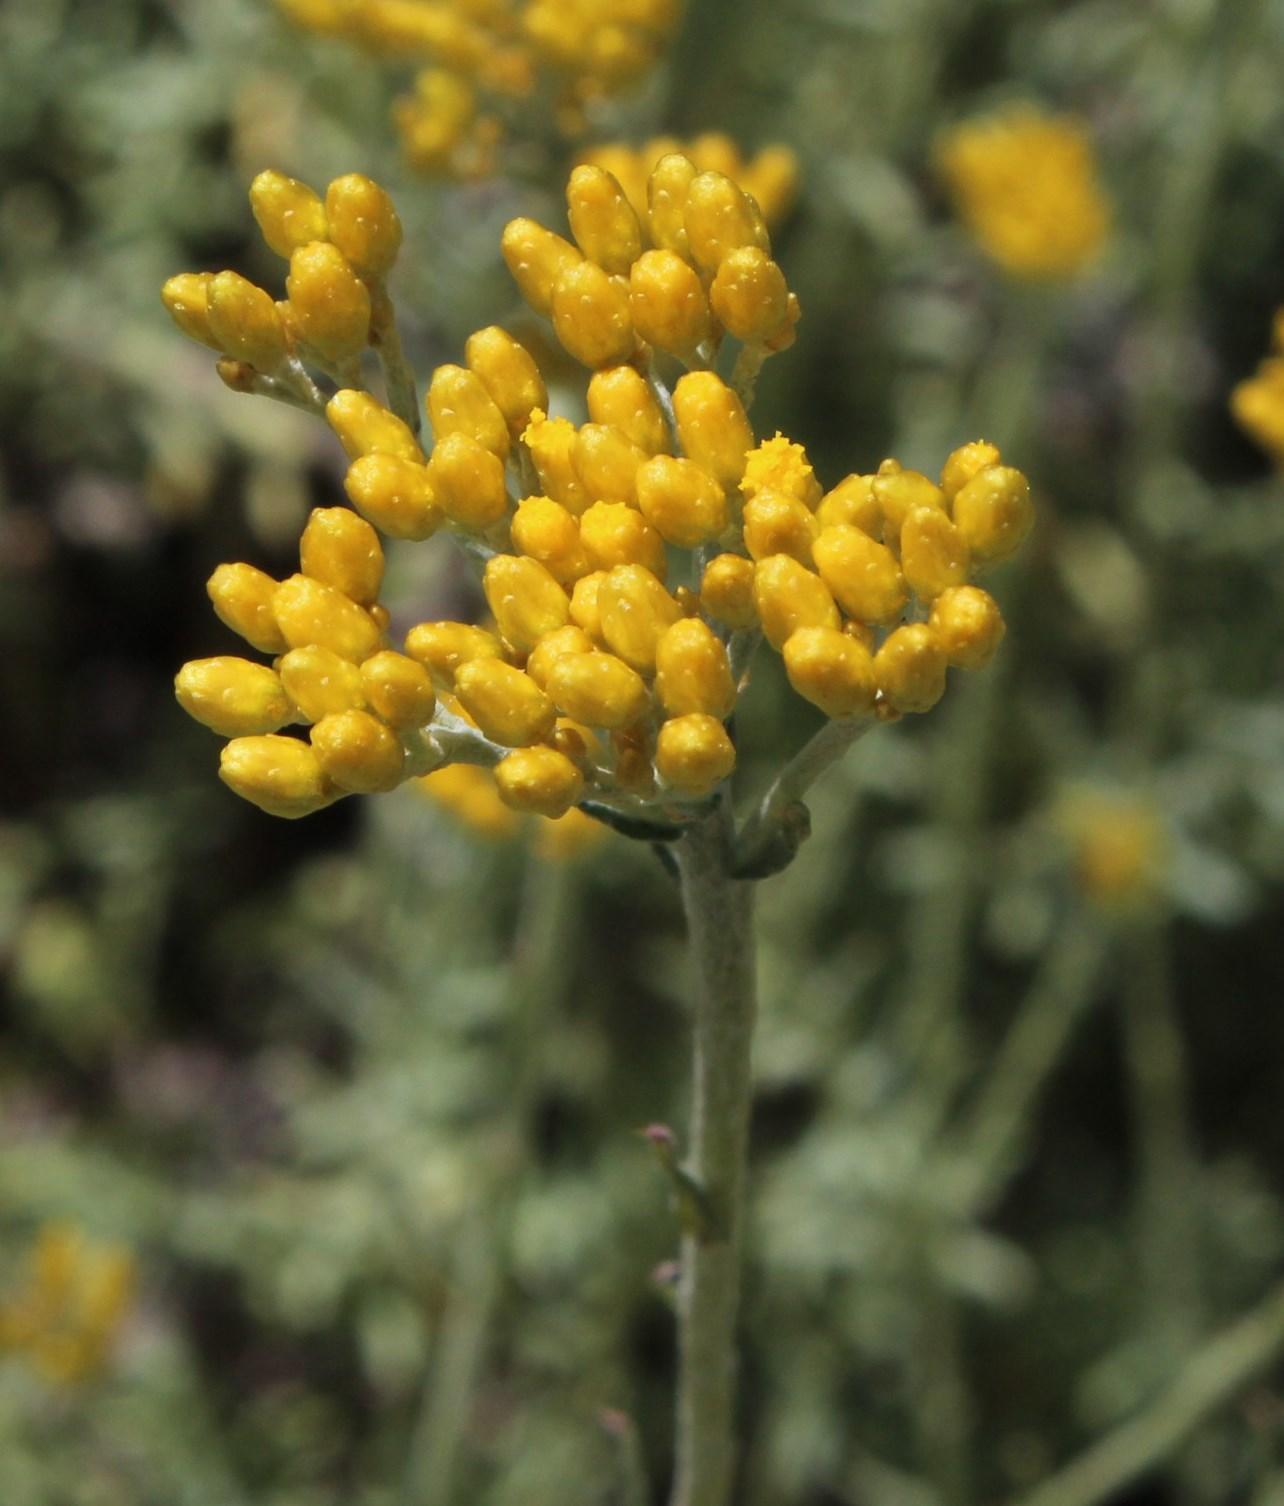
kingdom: Plantae
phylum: Tracheophyta
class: Magnoliopsida
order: Asterales
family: Asteraceae
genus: Helichrysum
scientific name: Helichrysum rutilans
